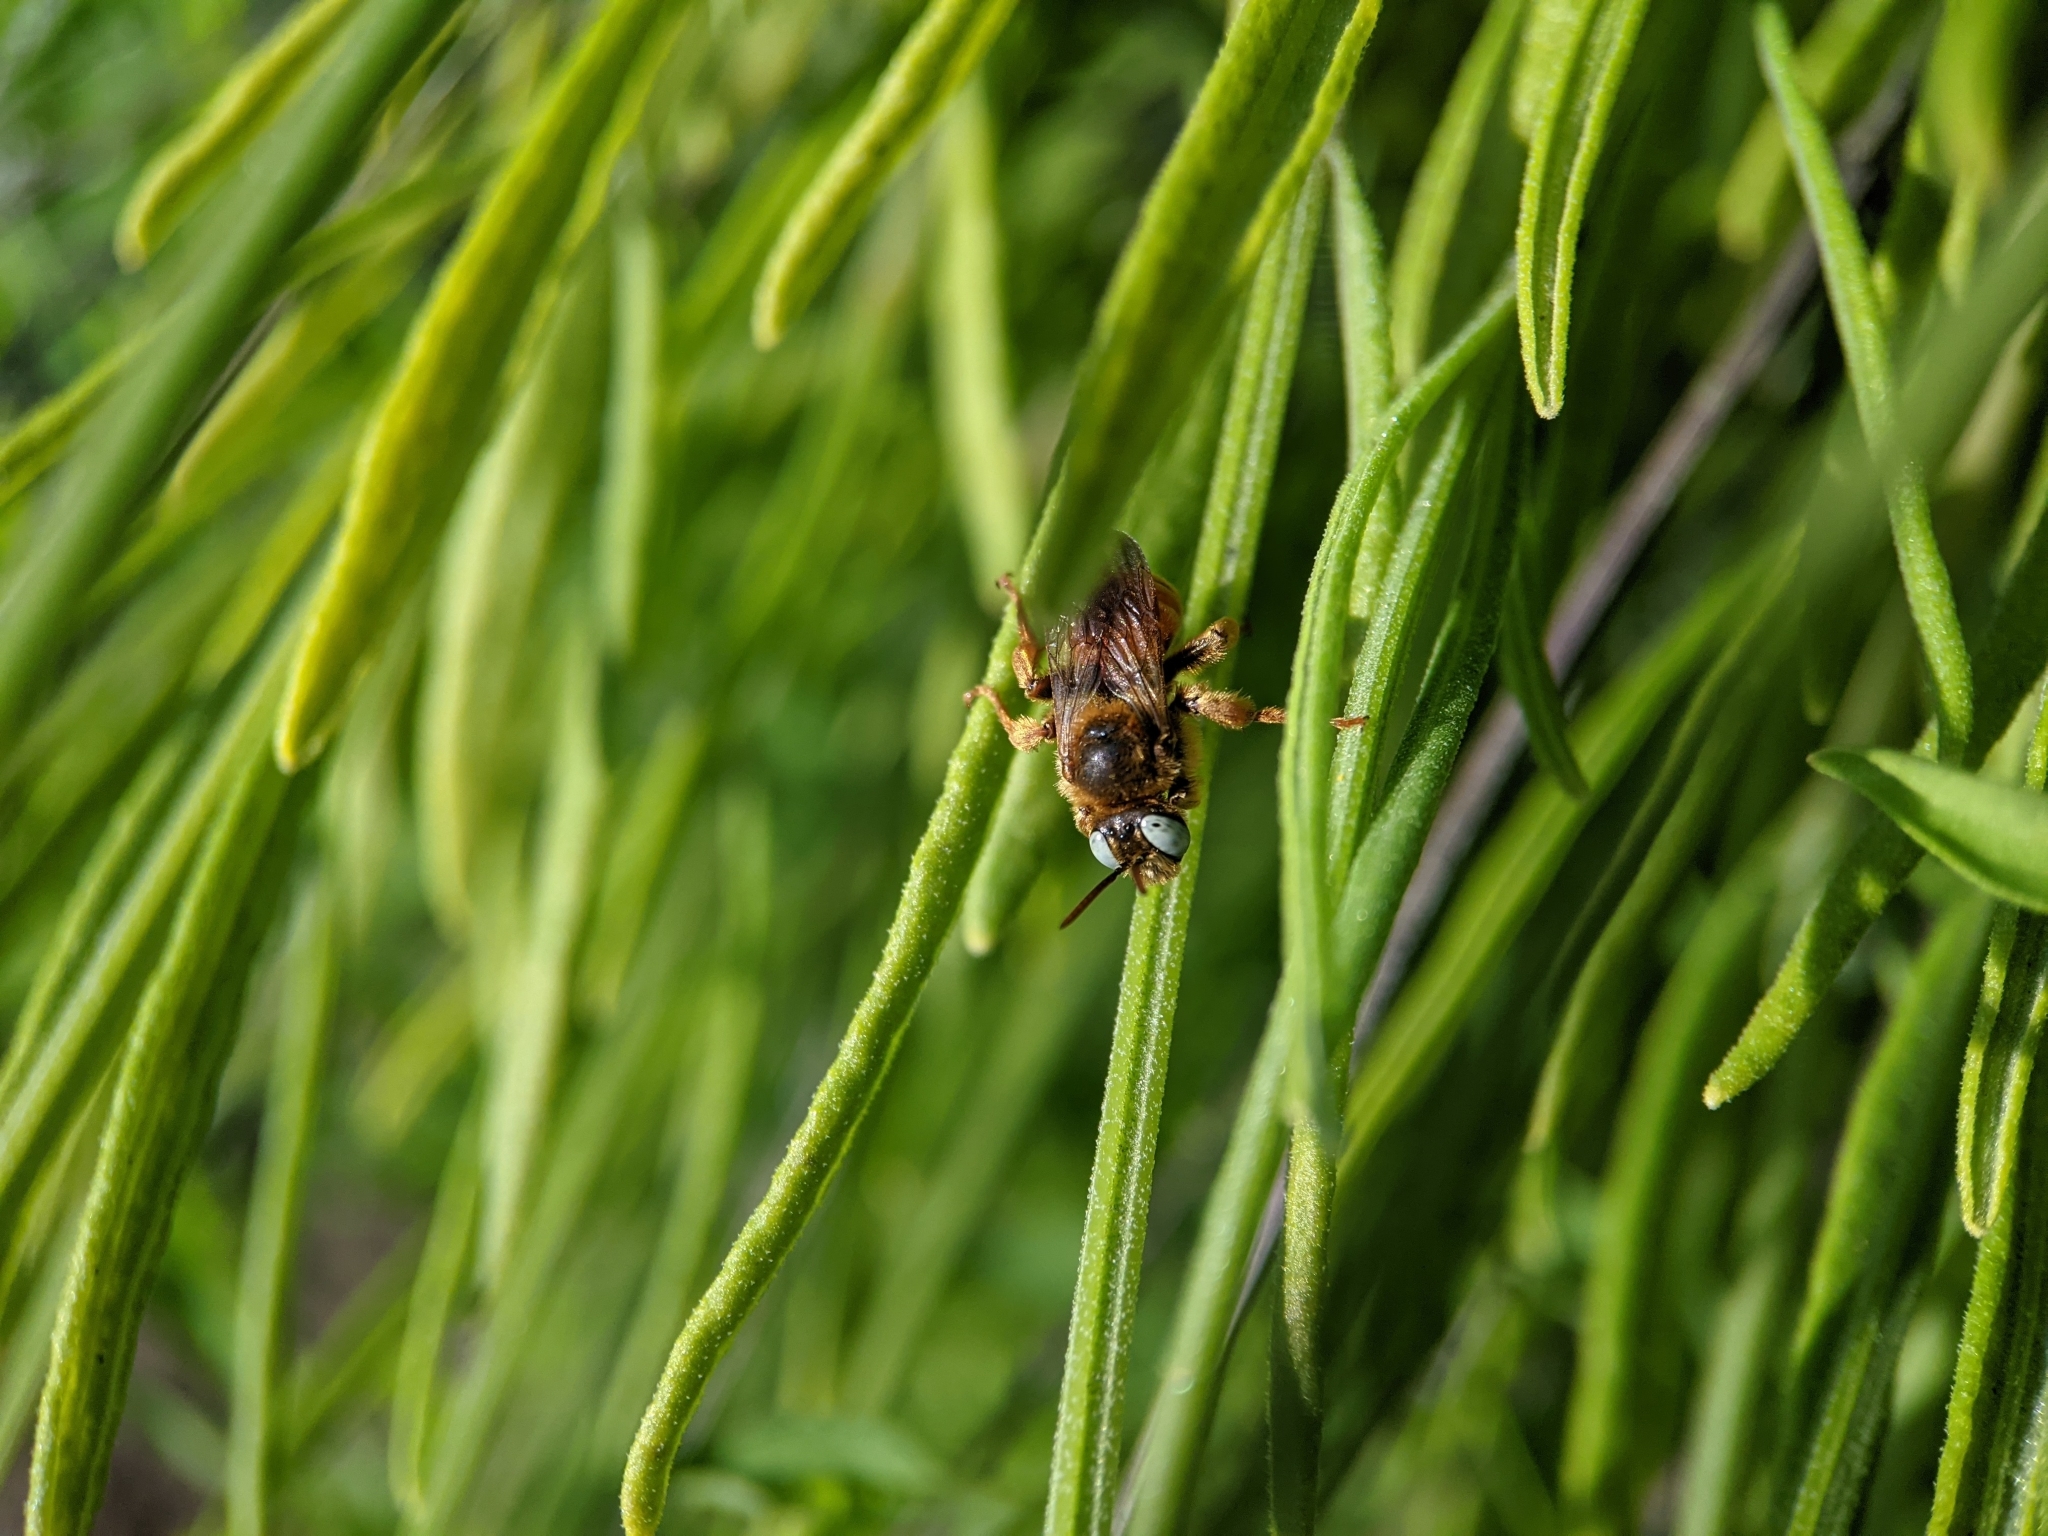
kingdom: Animalia
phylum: Arthropoda
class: Insecta
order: Hymenoptera
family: Apidae
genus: Epeoloides
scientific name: Epeoloides coecutiens
